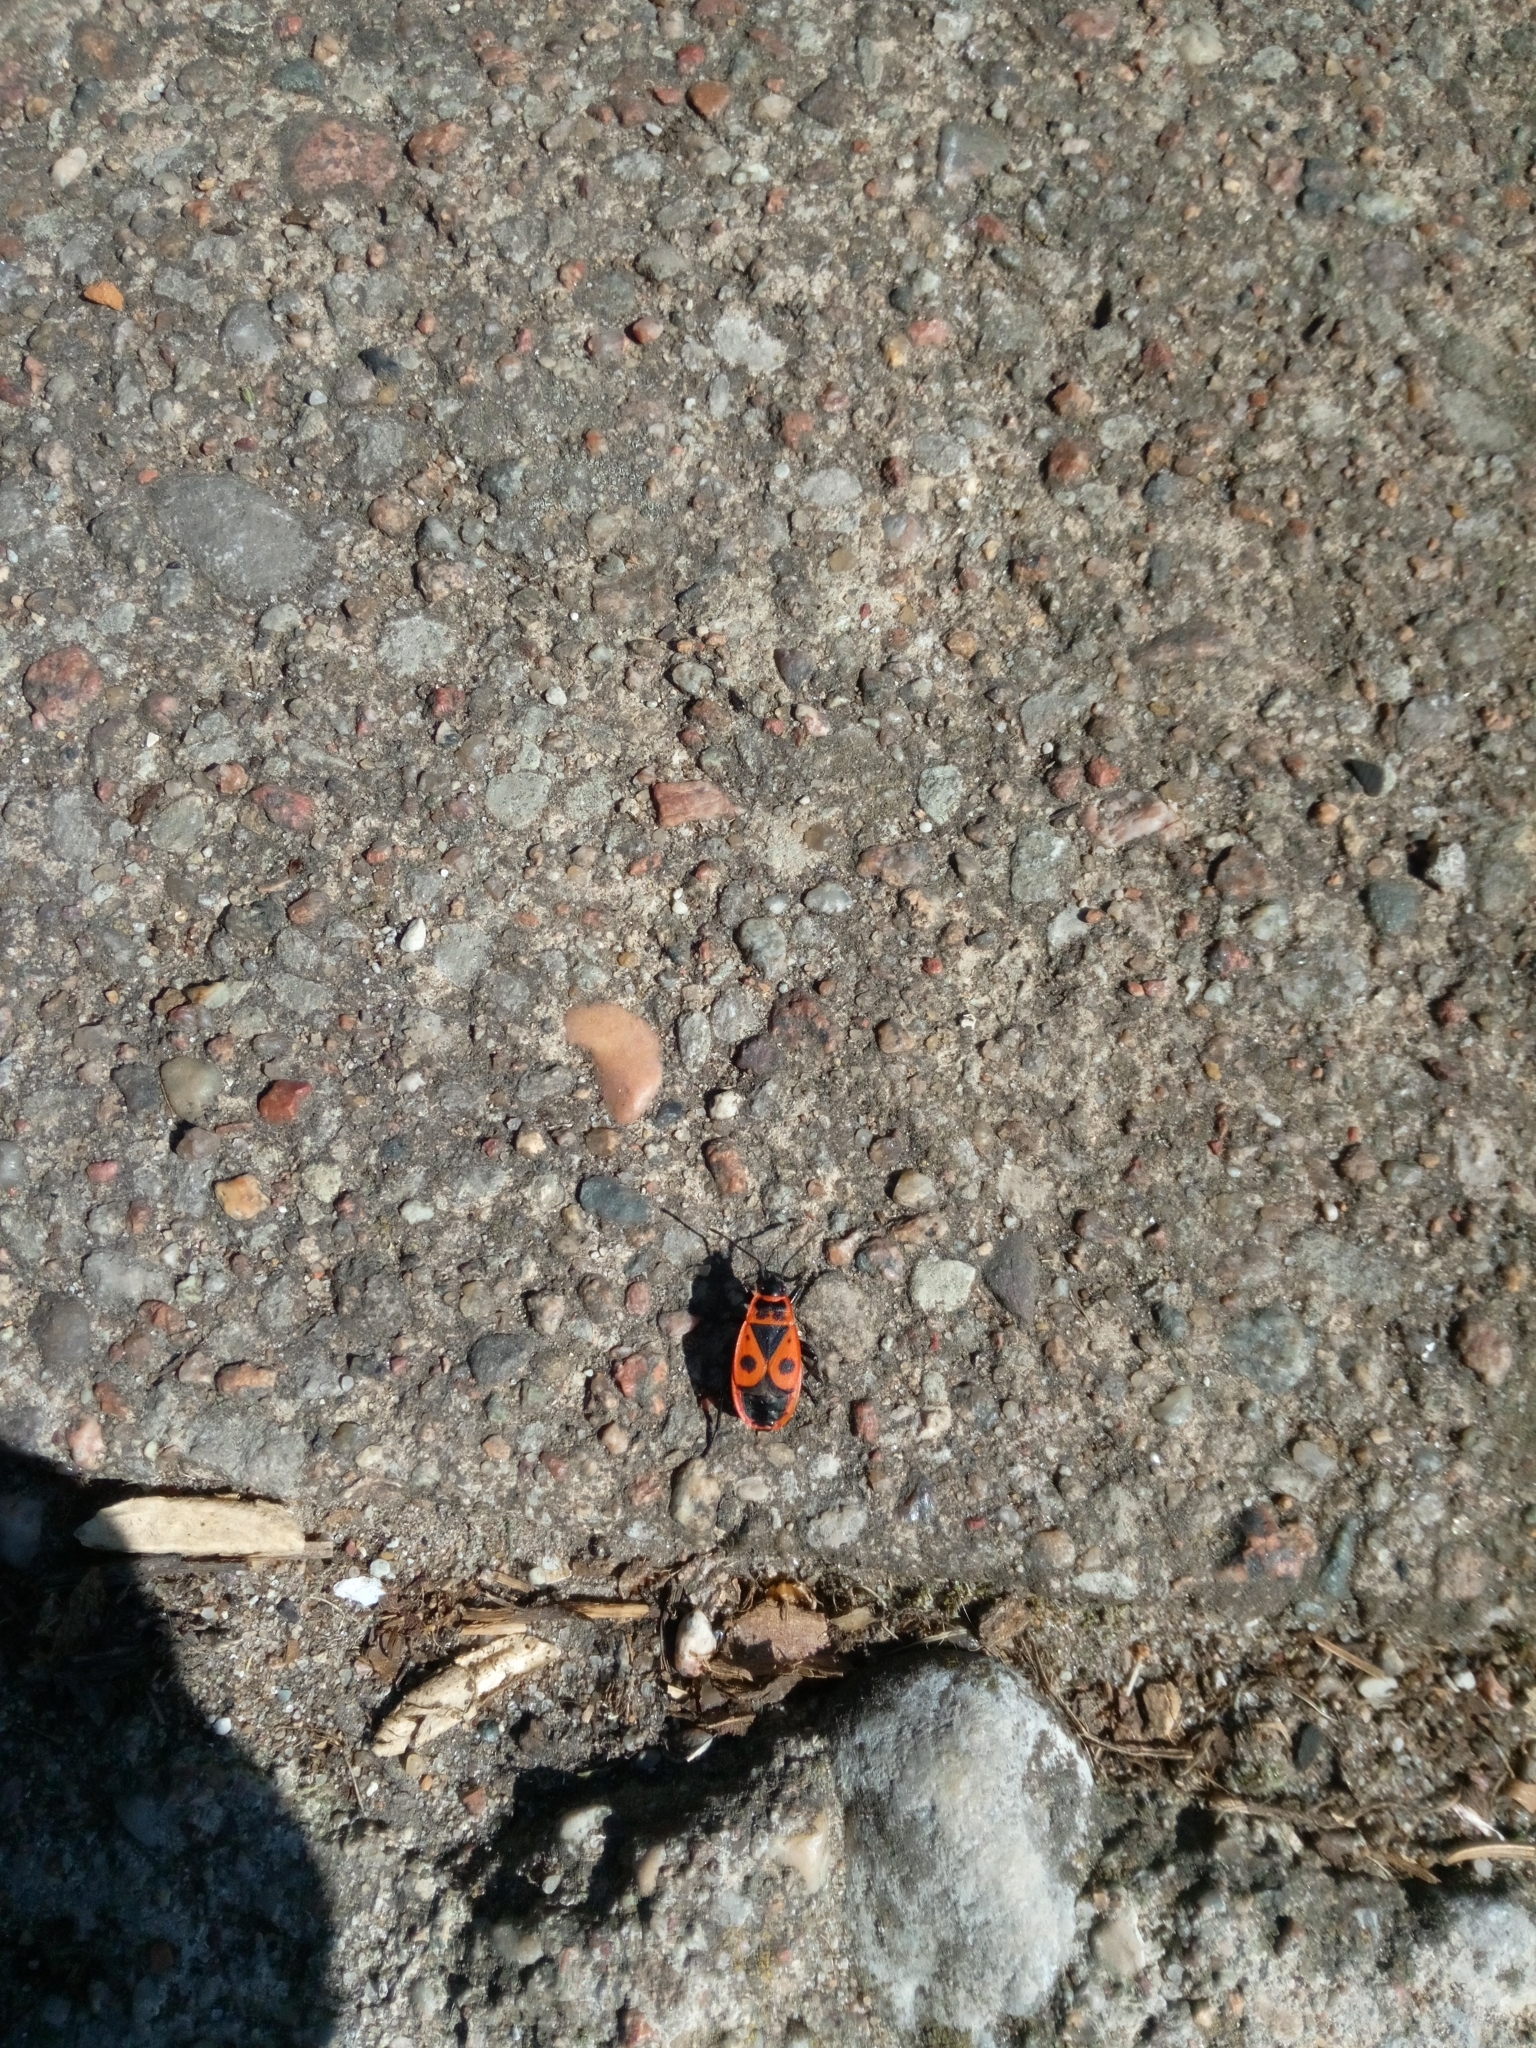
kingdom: Animalia
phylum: Arthropoda
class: Insecta
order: Hemiptera
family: Pyrrhocoridae
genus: Pyrrhocoris
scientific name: Pyrrhocoris apterus
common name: Firebug
